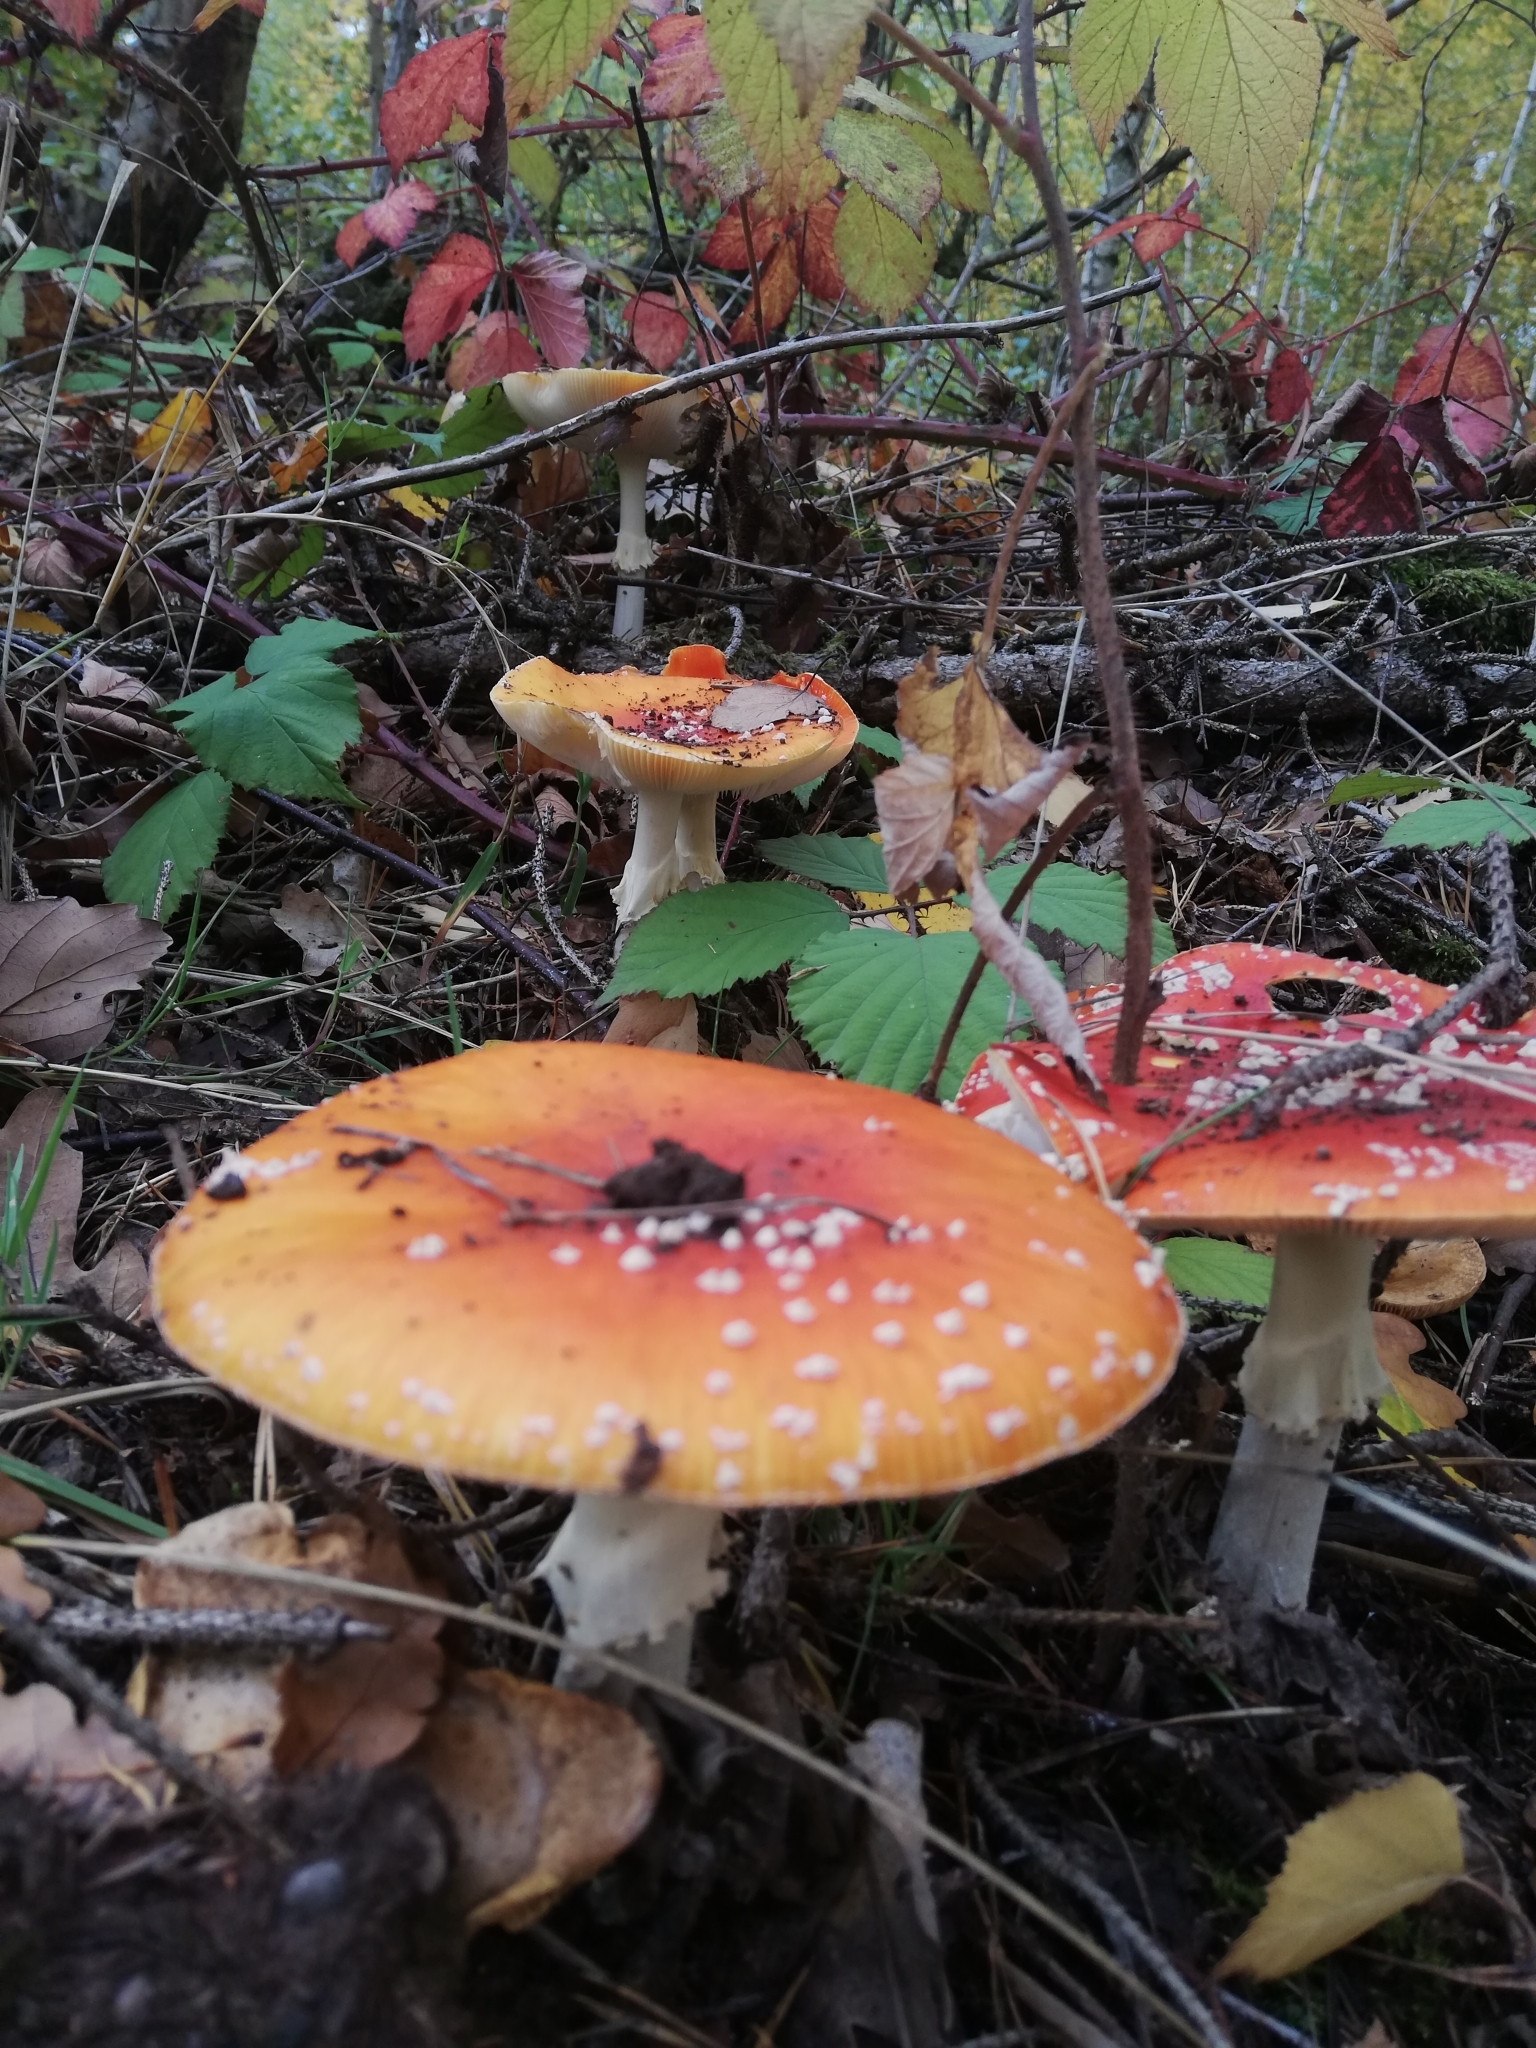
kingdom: Fungi
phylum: Basidiomycota
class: Agaricomycetes
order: Agaricales
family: Amanitaceae
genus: Amanita
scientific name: Amanita muscaria
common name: Fly agaric
